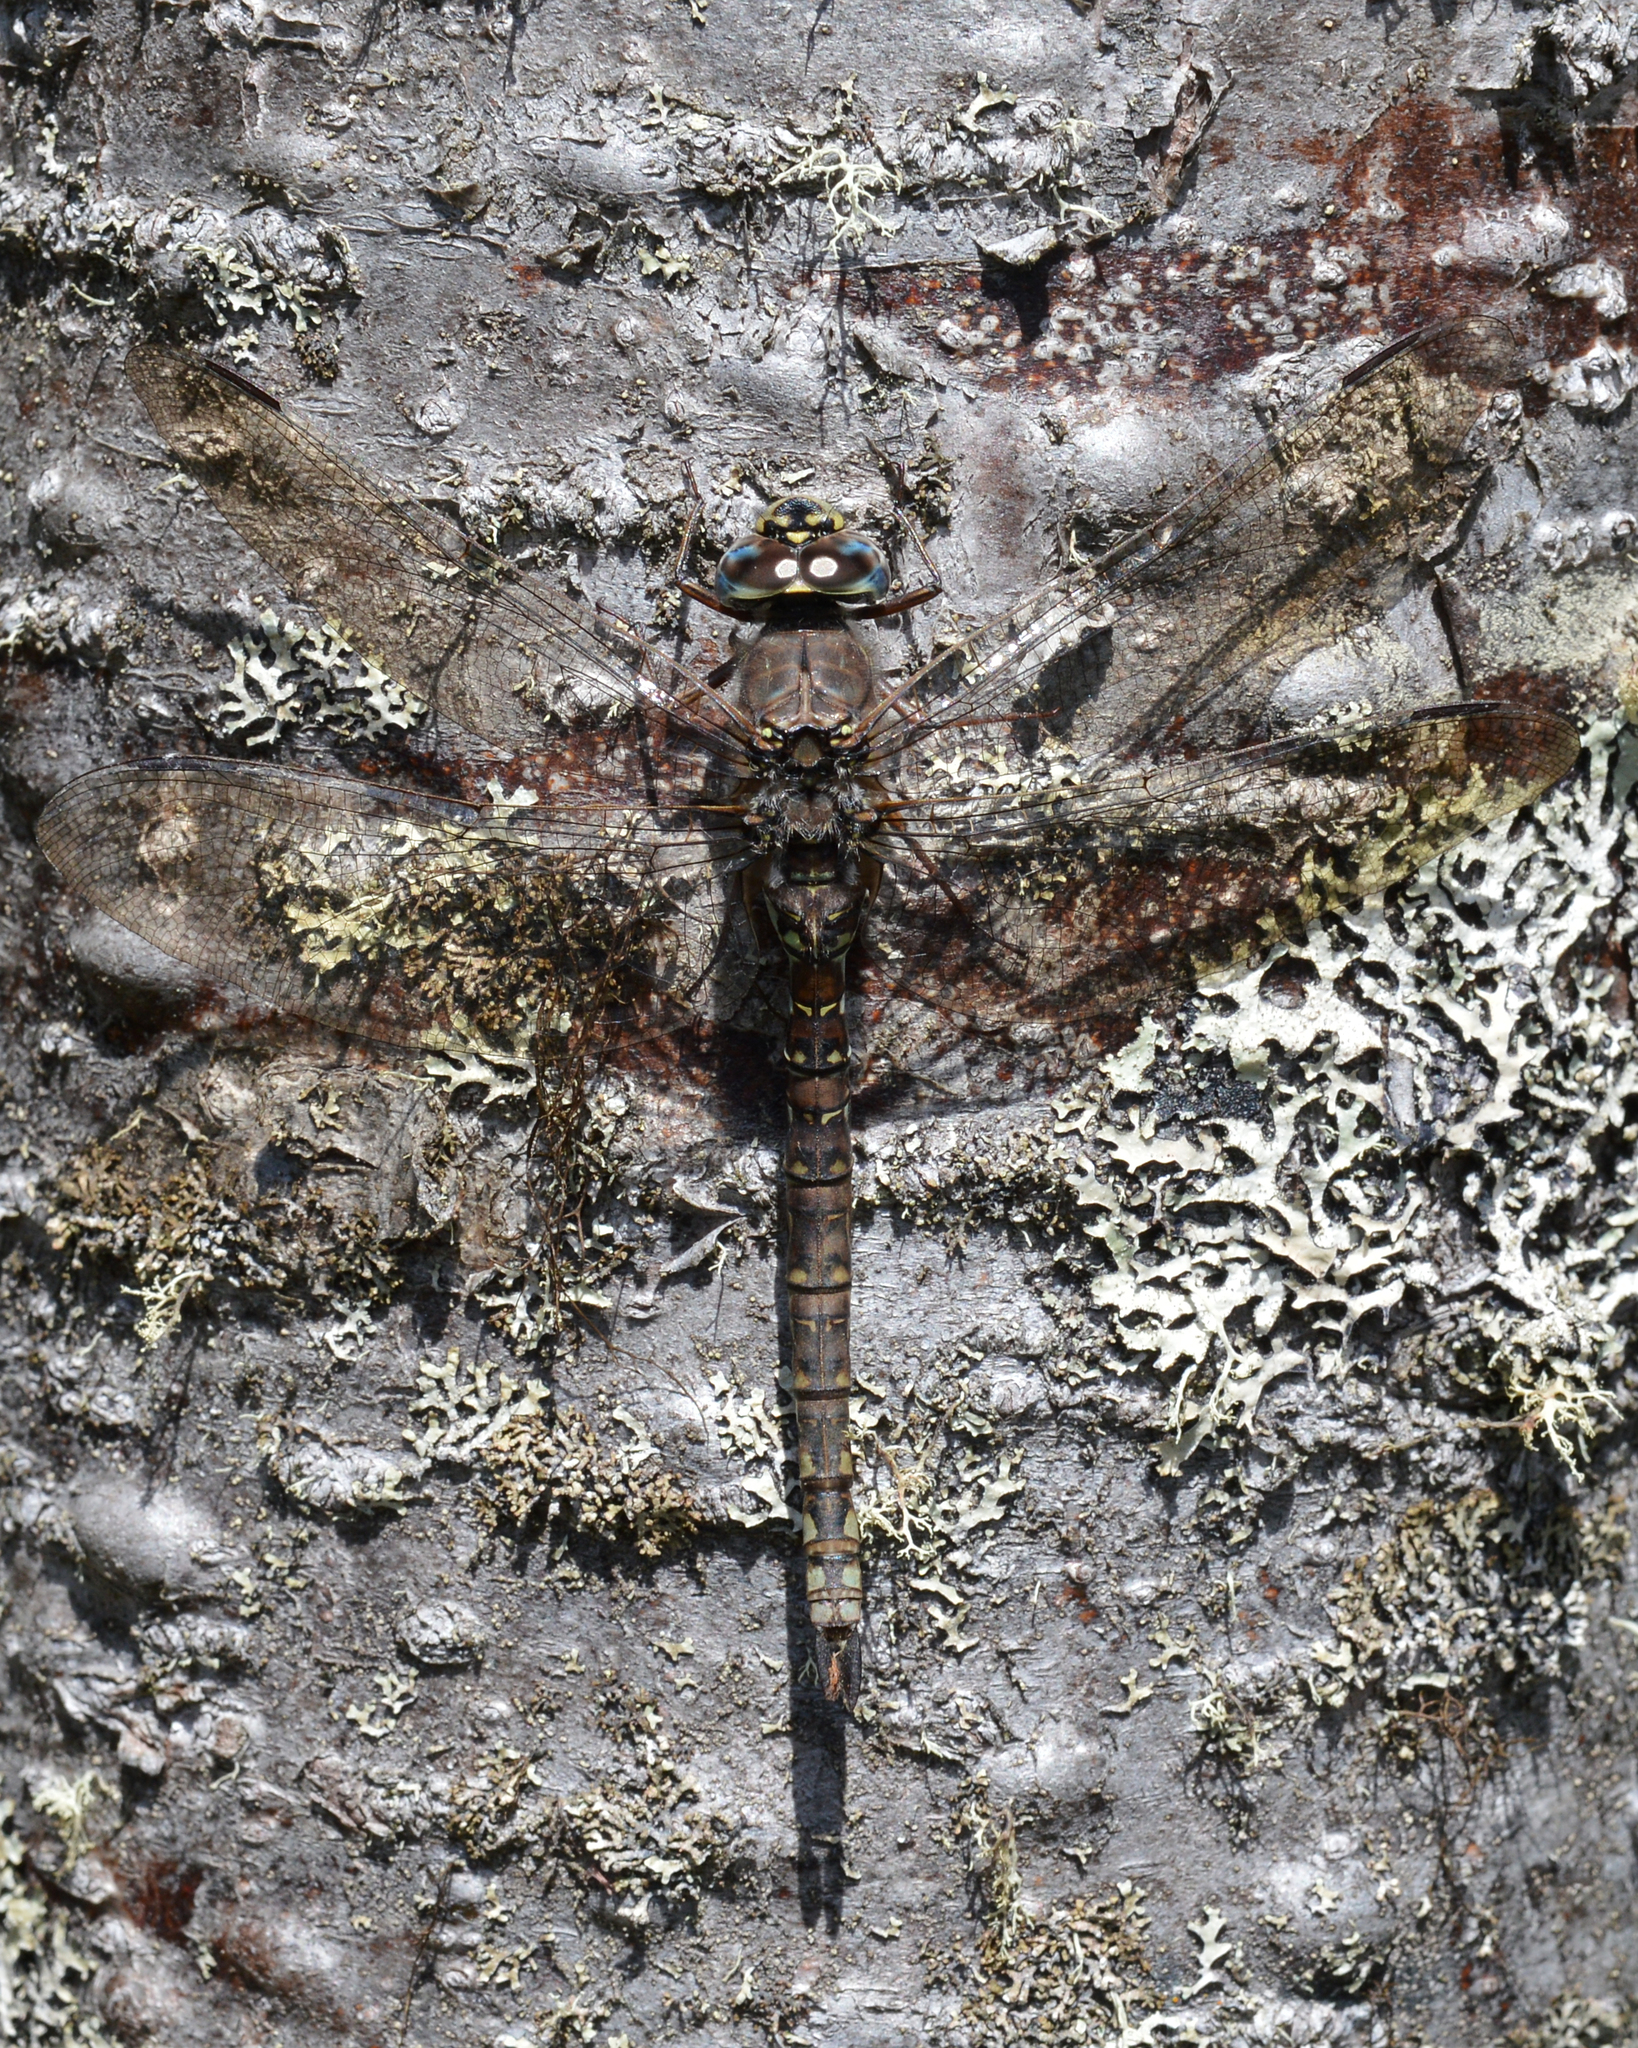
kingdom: Animalia
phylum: Arthropoda
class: Insecta
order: Odonata
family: Aeshnidae
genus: Aeshna
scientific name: Aeshna sitchensis
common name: Zigzag darner
